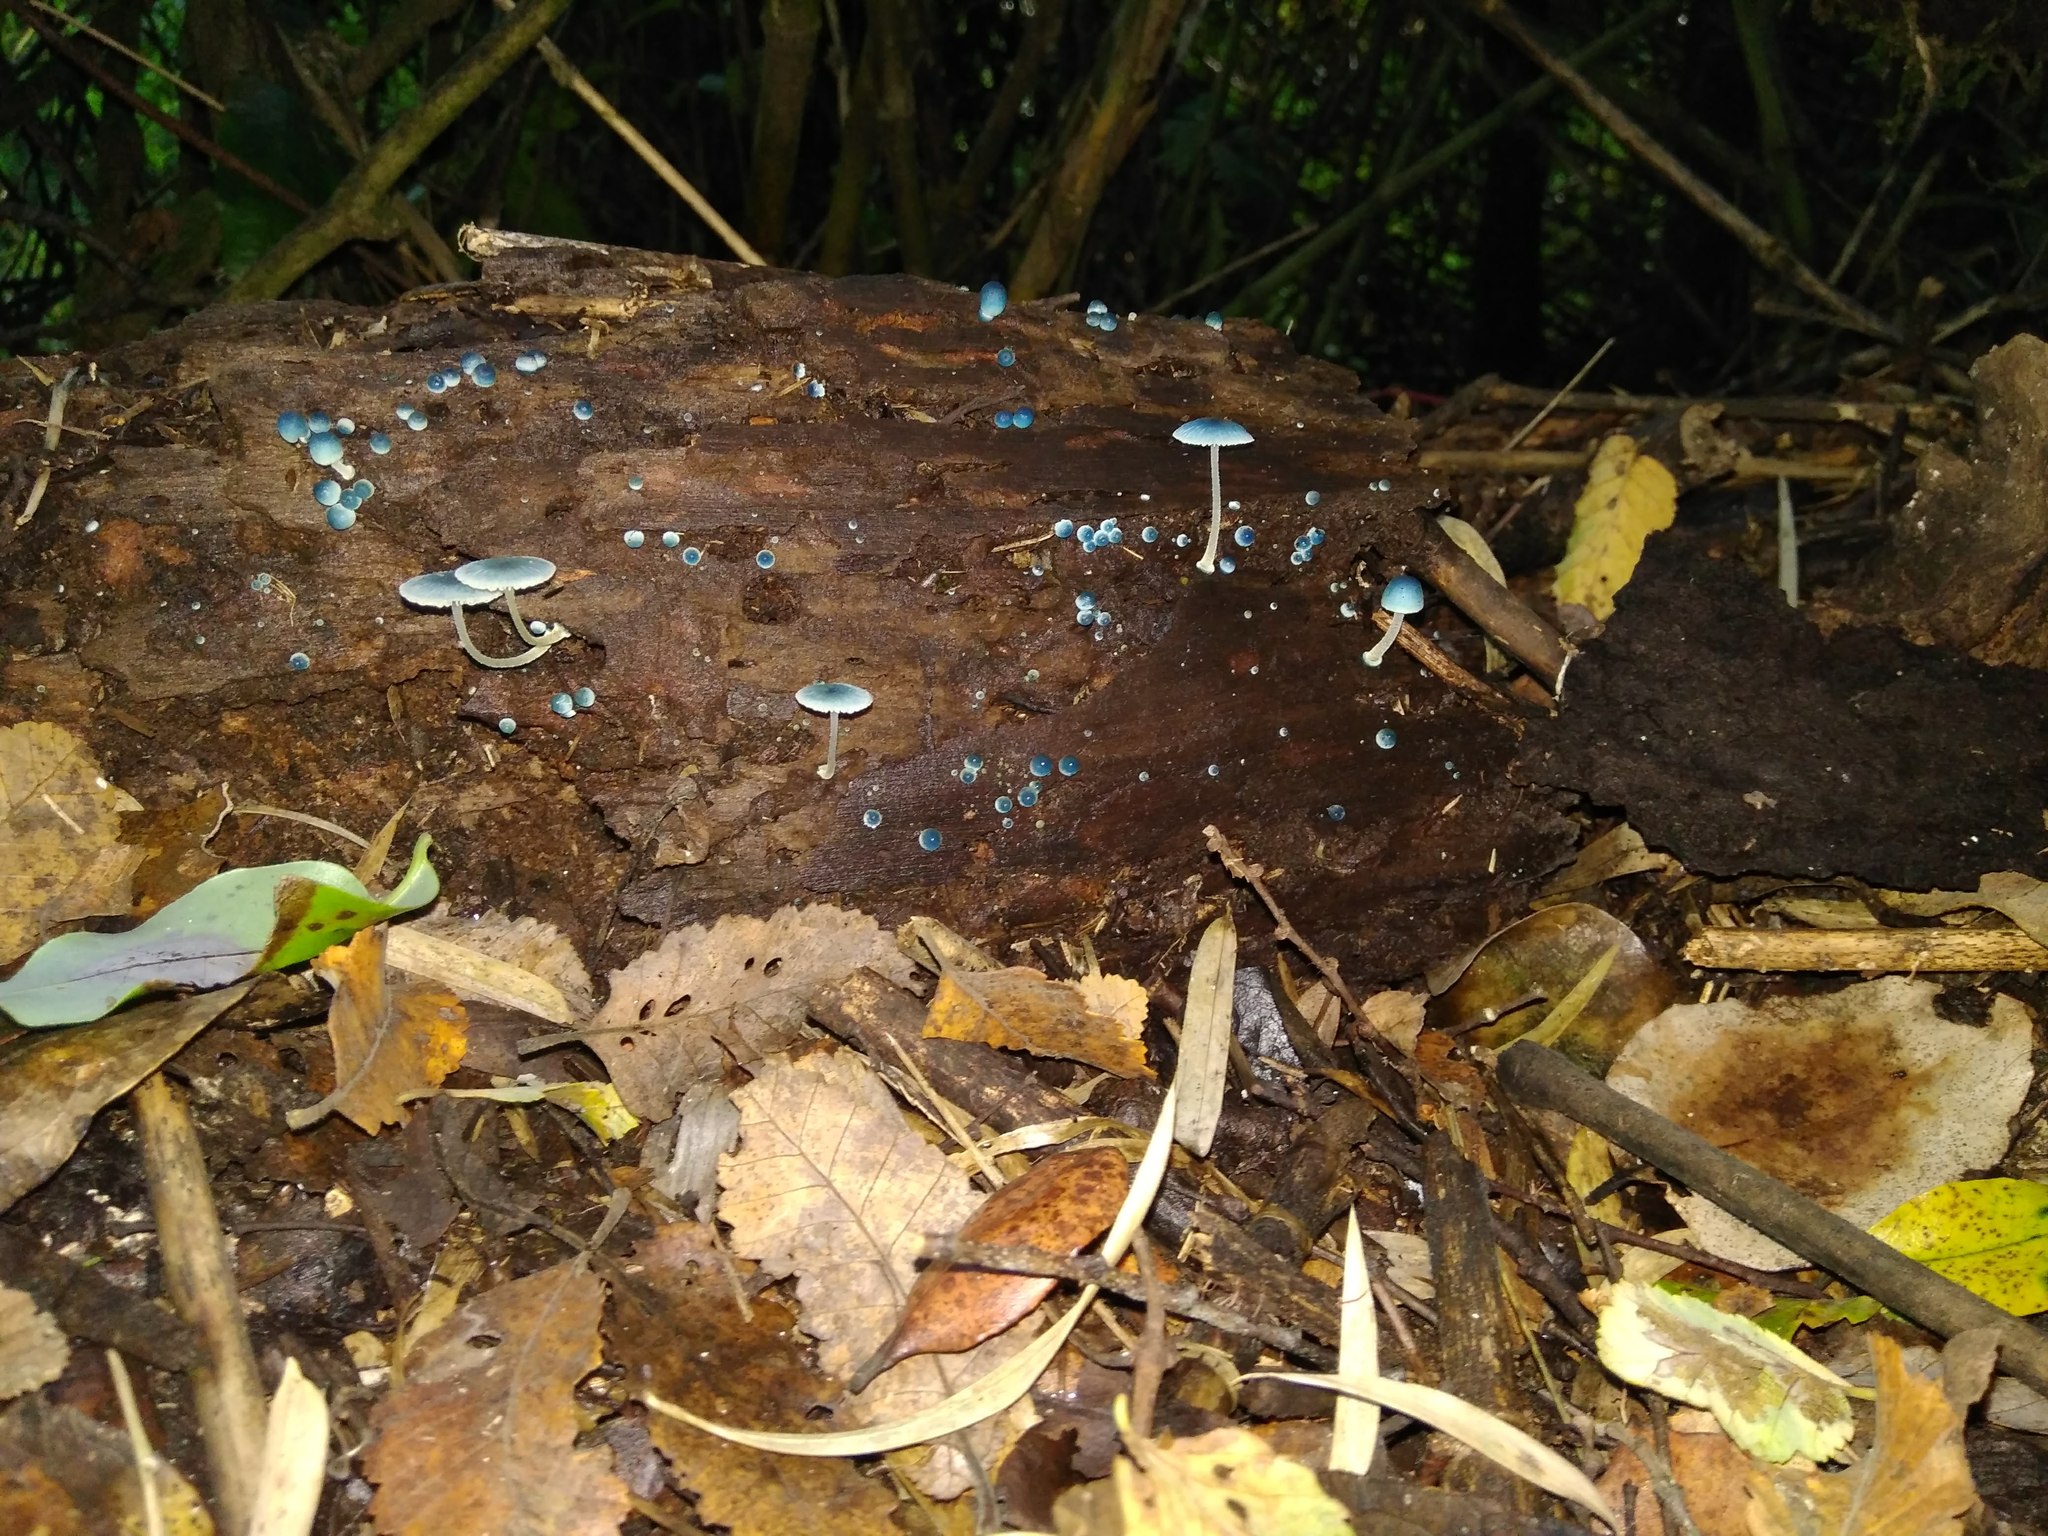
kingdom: Fungi
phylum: Basidiomycota
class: Agaricomycetes
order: Agaricales
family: Mycenaceae
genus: Mycena
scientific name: Mycena cyanocephala
